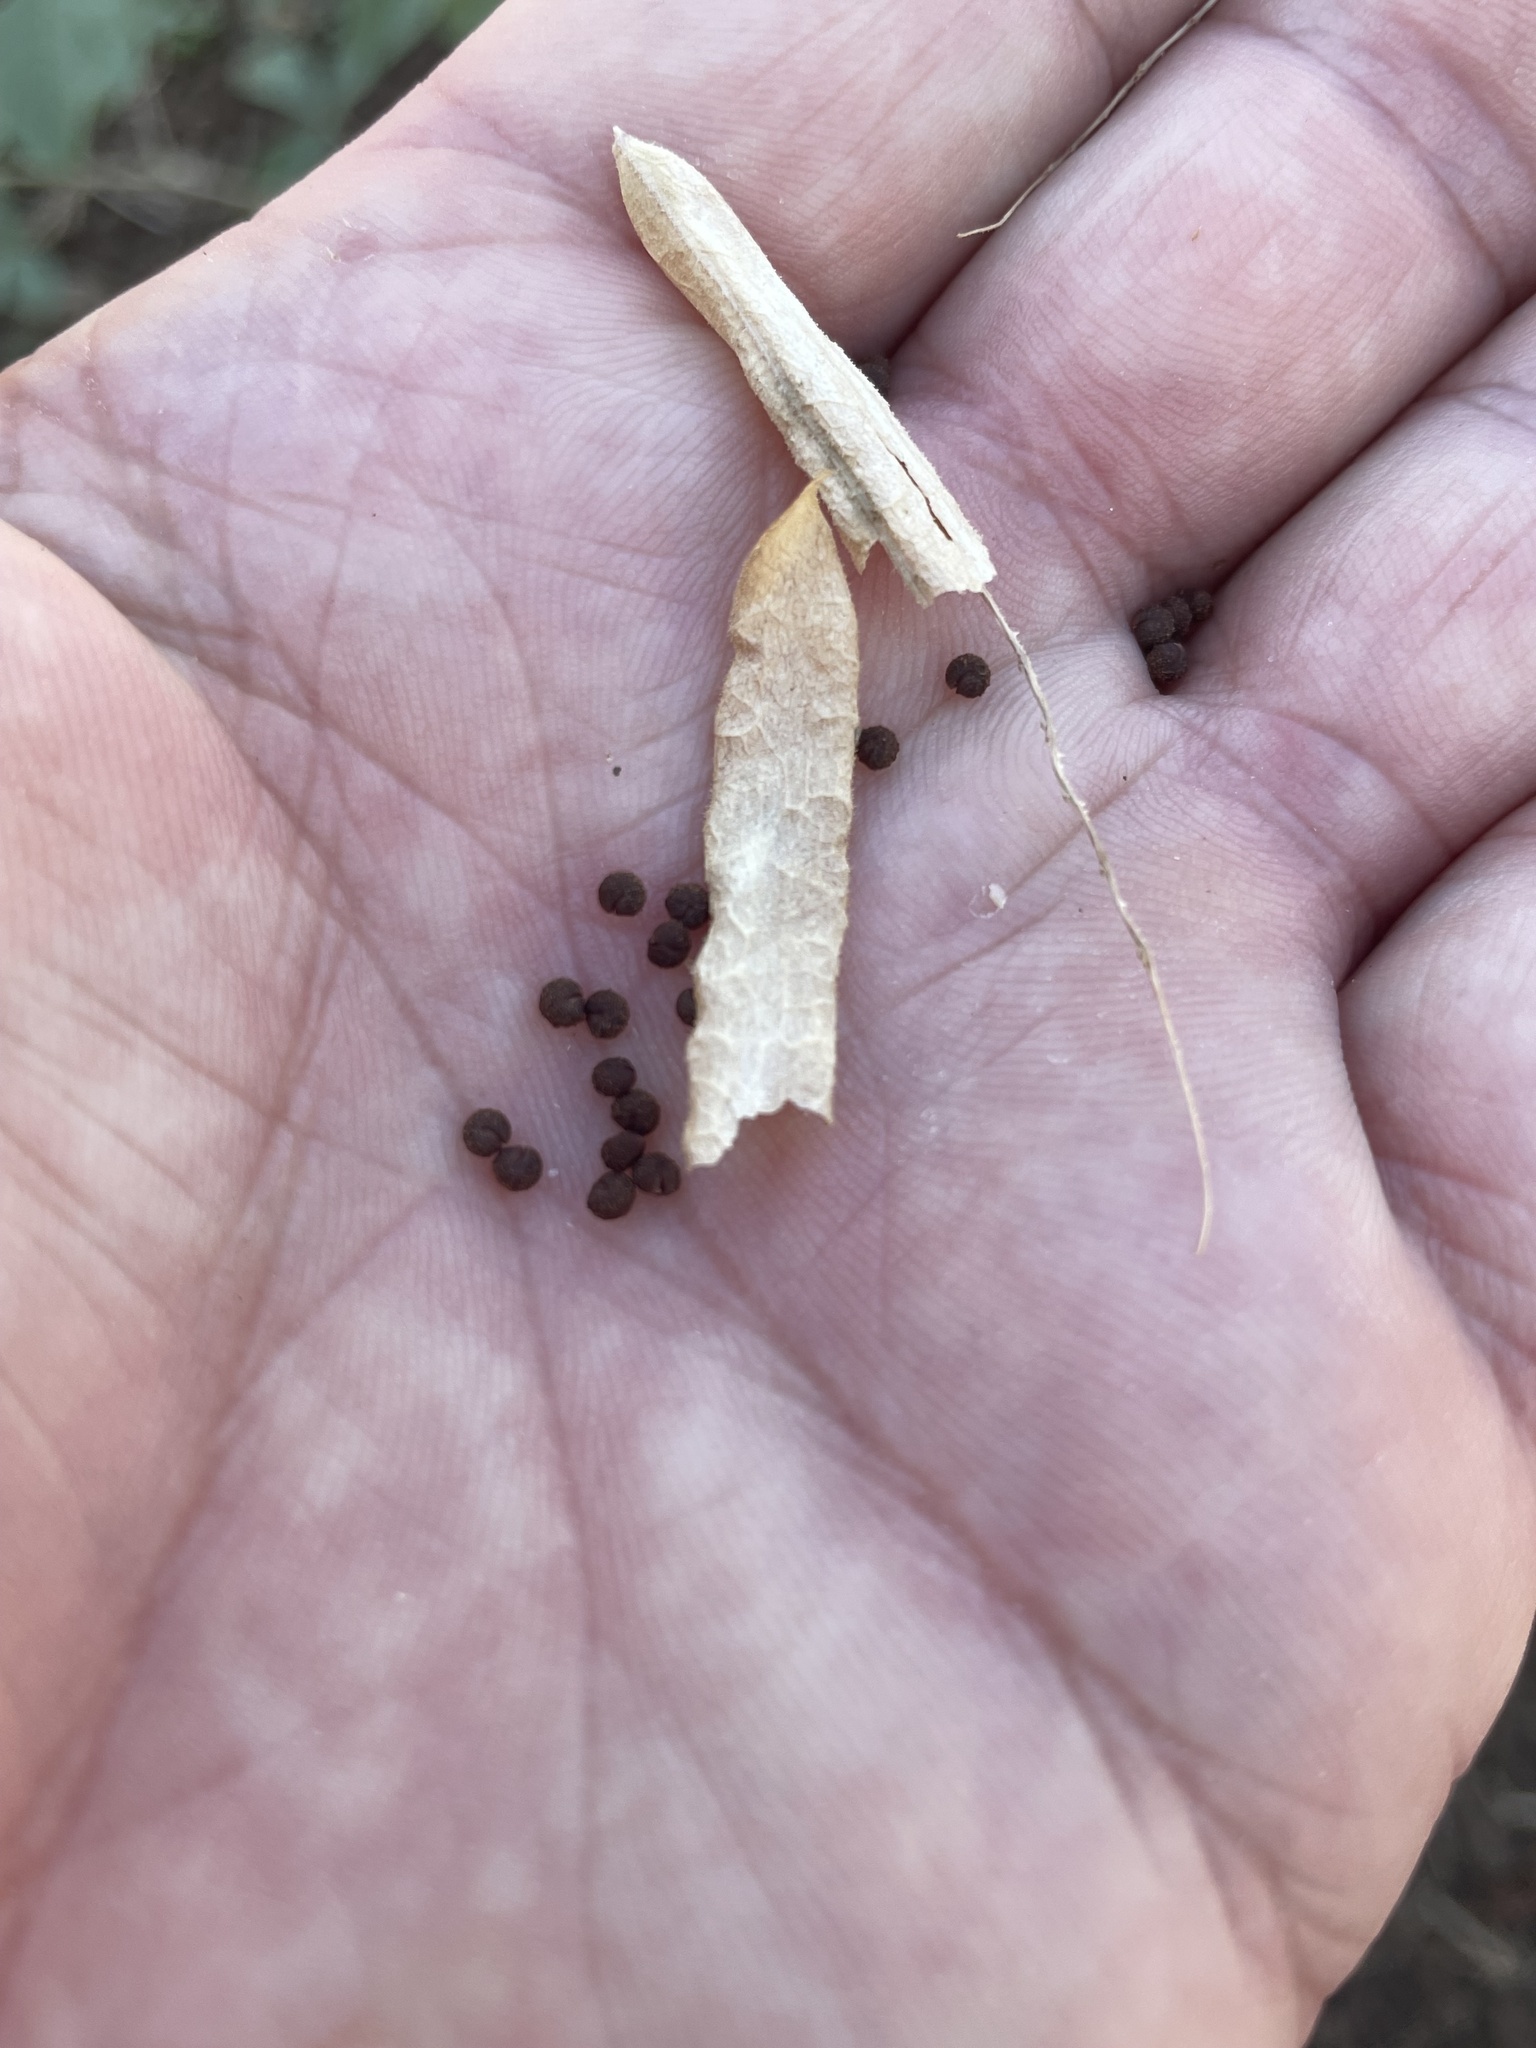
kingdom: Plantae
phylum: Tracheophyta
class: Magnoliopsida
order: Brassicales
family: Cleomaceae
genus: Polanisia
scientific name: Polanisia dodecandra
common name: Clammyweed
